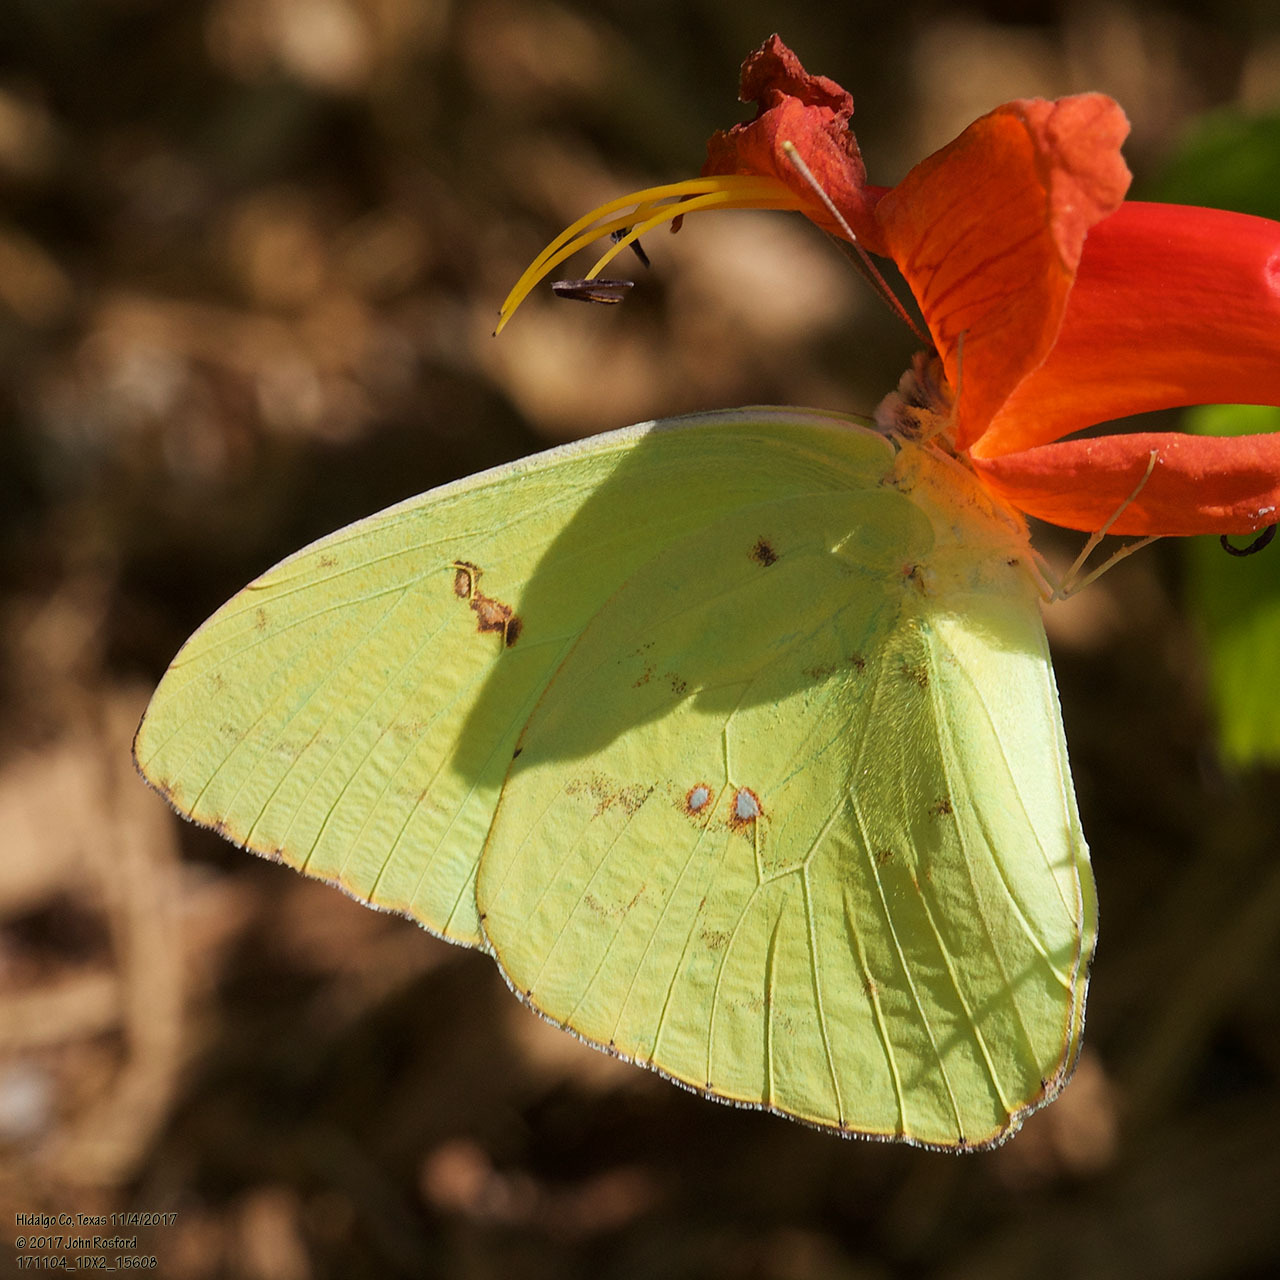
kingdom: Animalia
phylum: Arthropoda
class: Insecta
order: Lepidoptera
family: Pieridae
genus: Phoebis
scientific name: Phoebis sennae
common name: Cloudless sulphur
